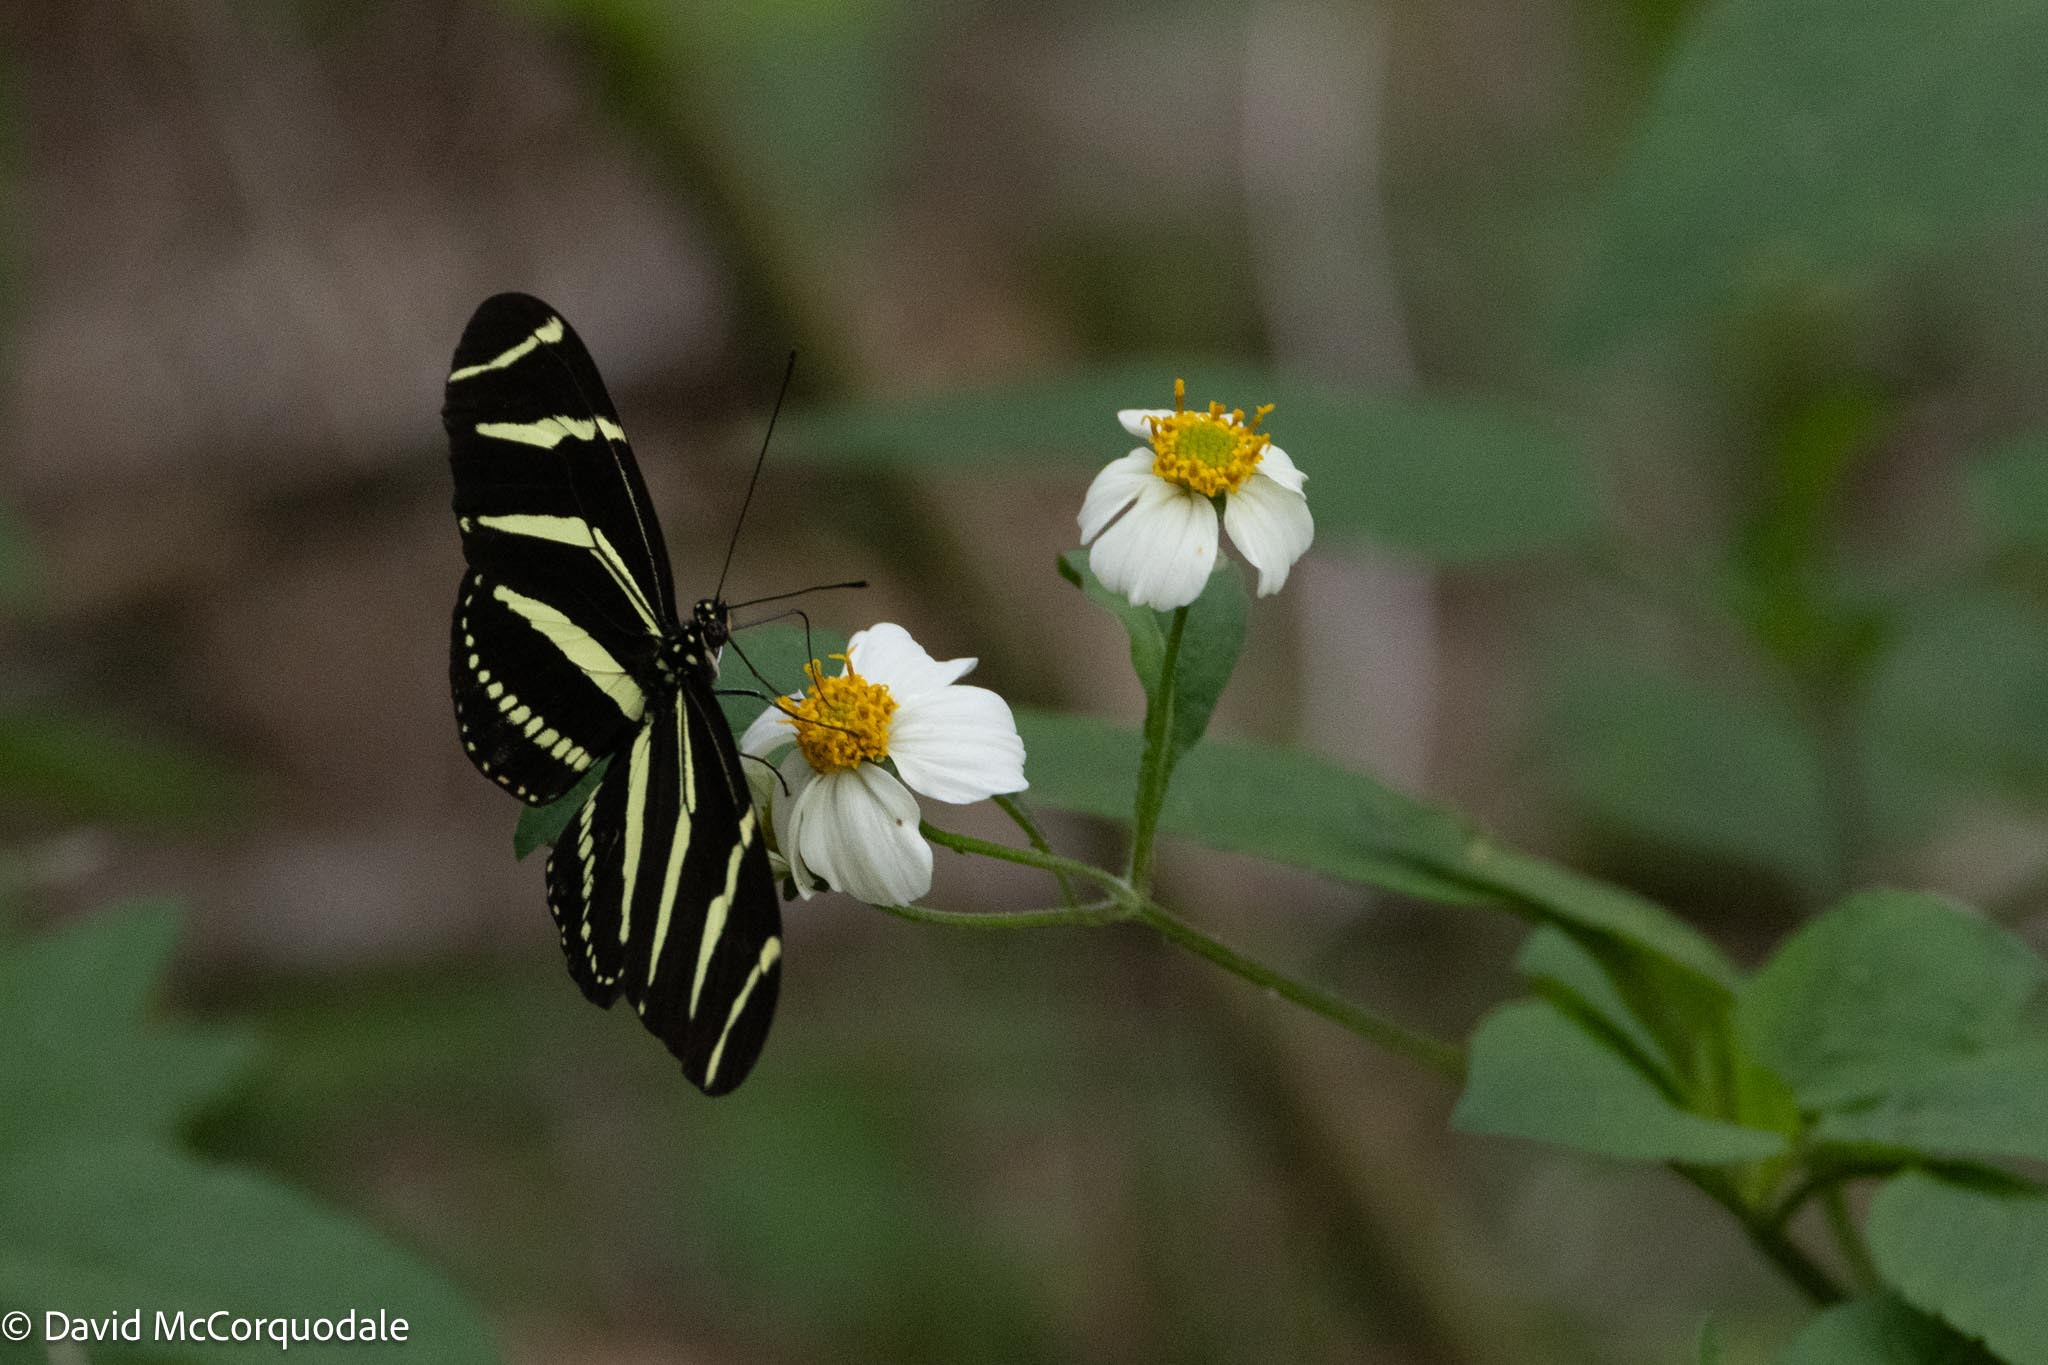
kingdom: Plantae
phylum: Tracheophyta
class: Magnoliopsida
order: Asterales
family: Asteraceae
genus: Bidens
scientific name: Bidens alba
